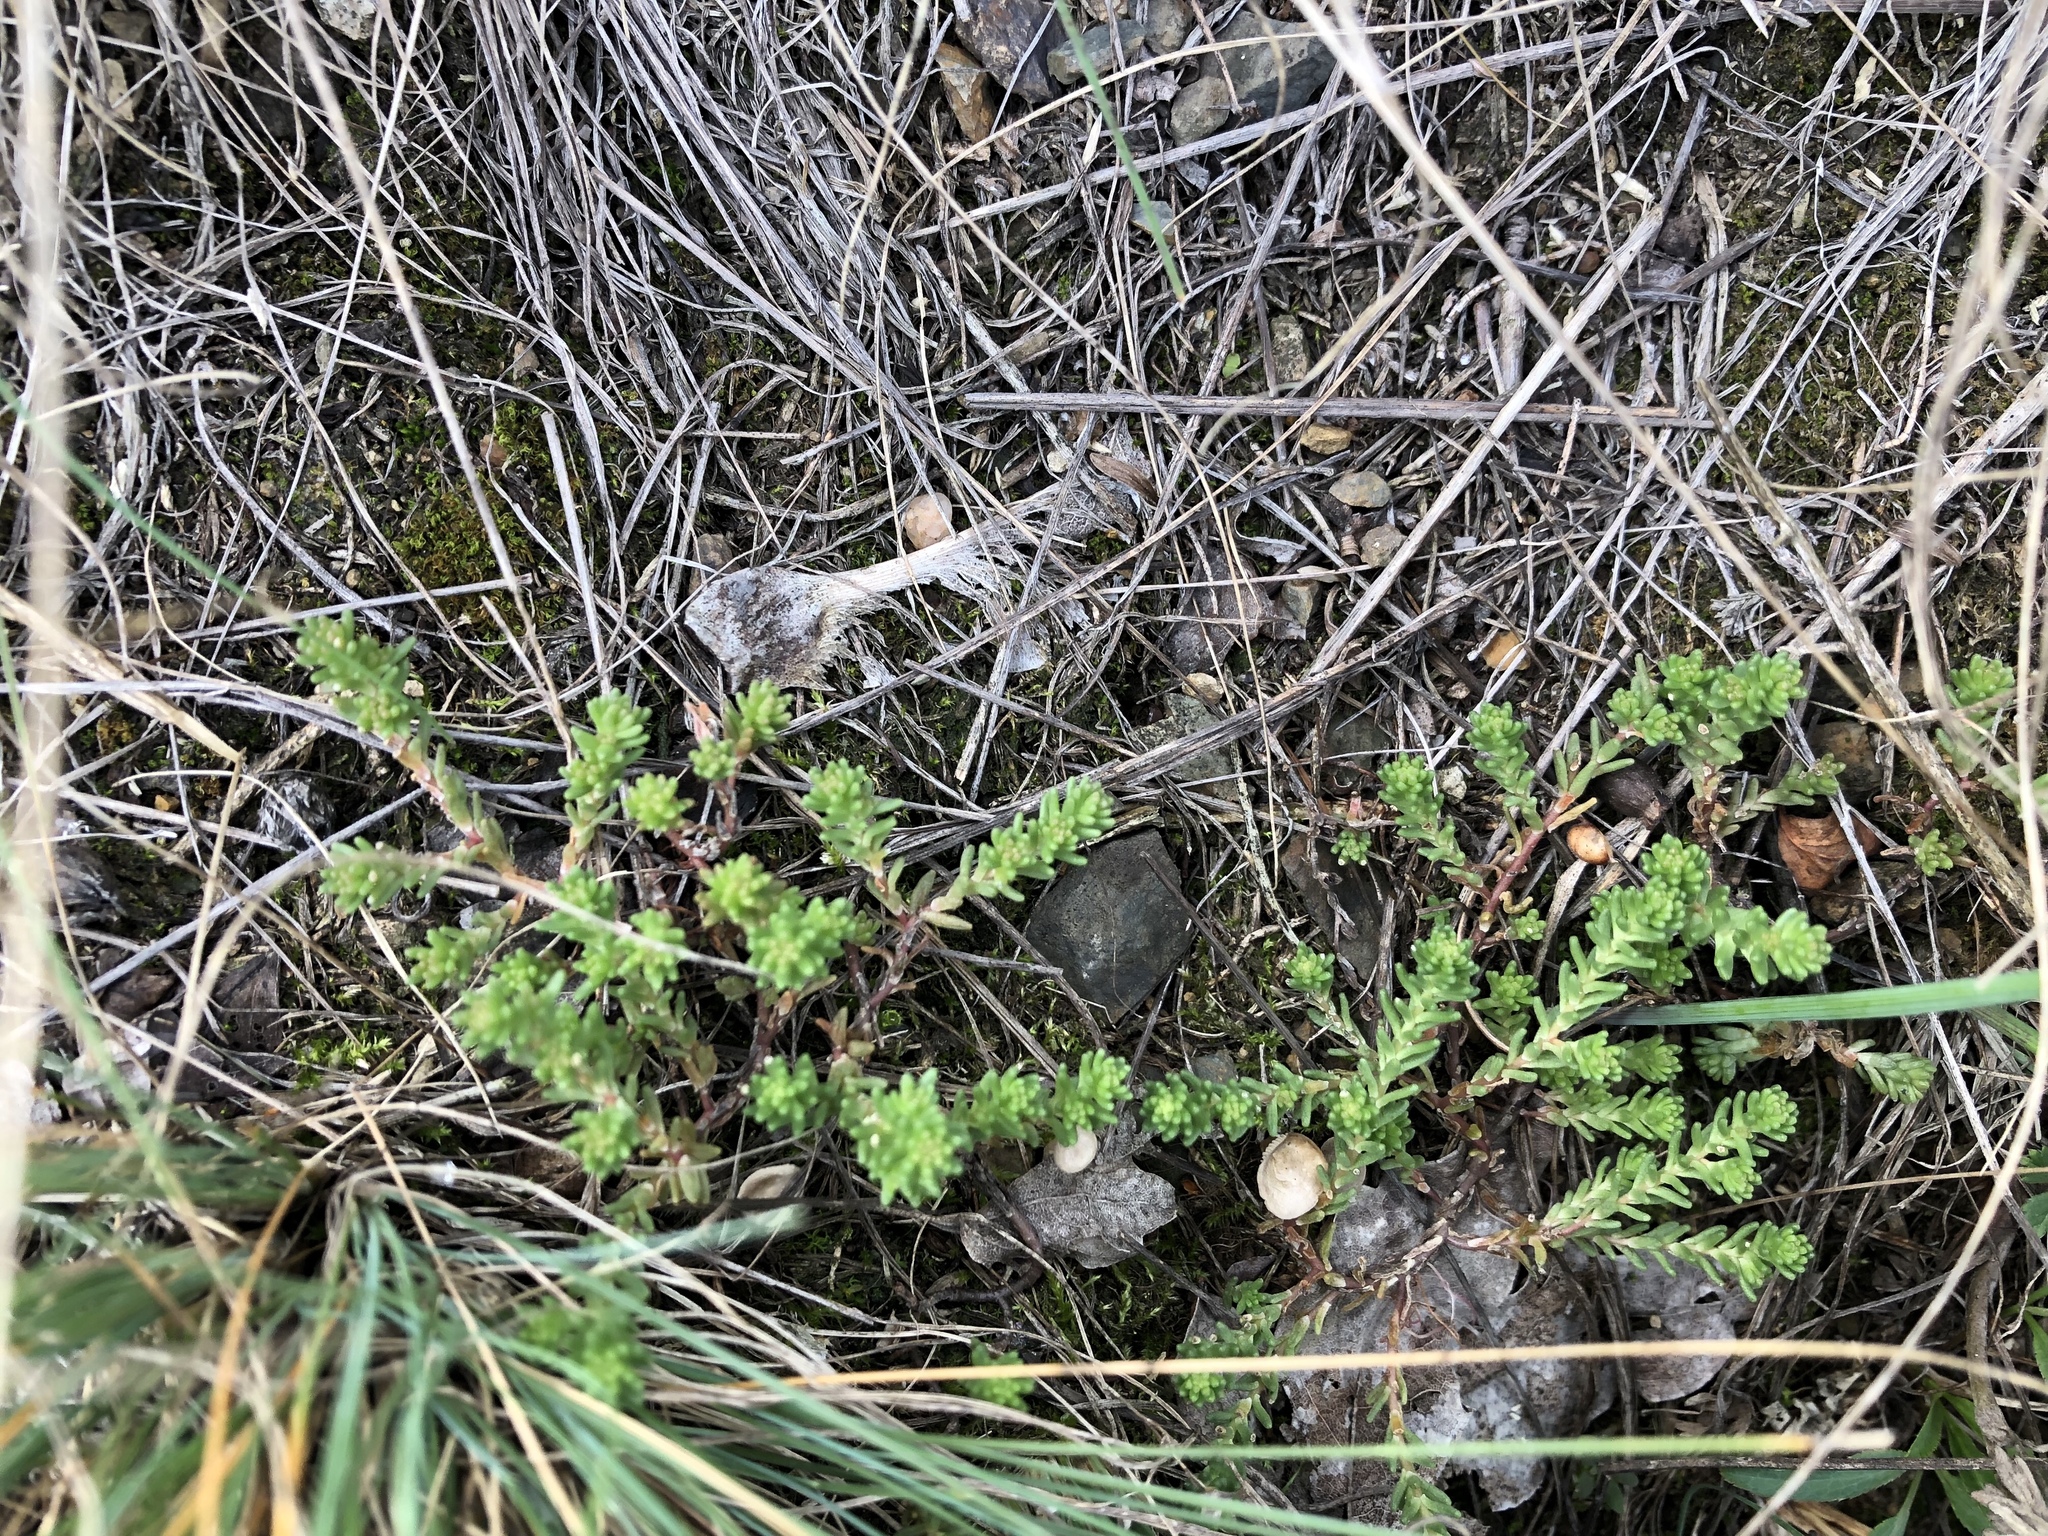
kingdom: Plantae
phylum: Tracheophyta
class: Magnoliopsida
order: Saxifragales
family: Crassulaceae
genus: Sedum
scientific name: Sedum sexangulare
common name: Tasteless stonecrop
